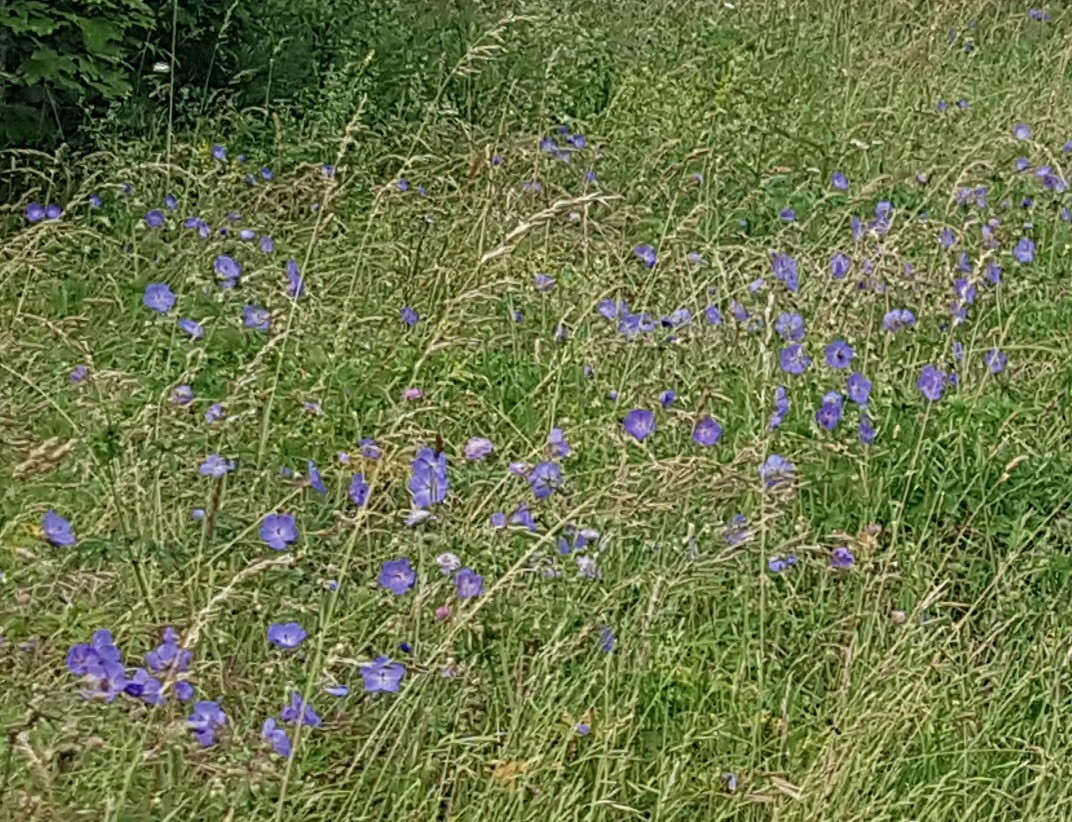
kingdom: Plantae
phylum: Tracheophyta
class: Magnoliopsida
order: Geraniales
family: Geraniaceae
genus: Geranium
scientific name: Geranium pratense
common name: Meadow crane's-bill
